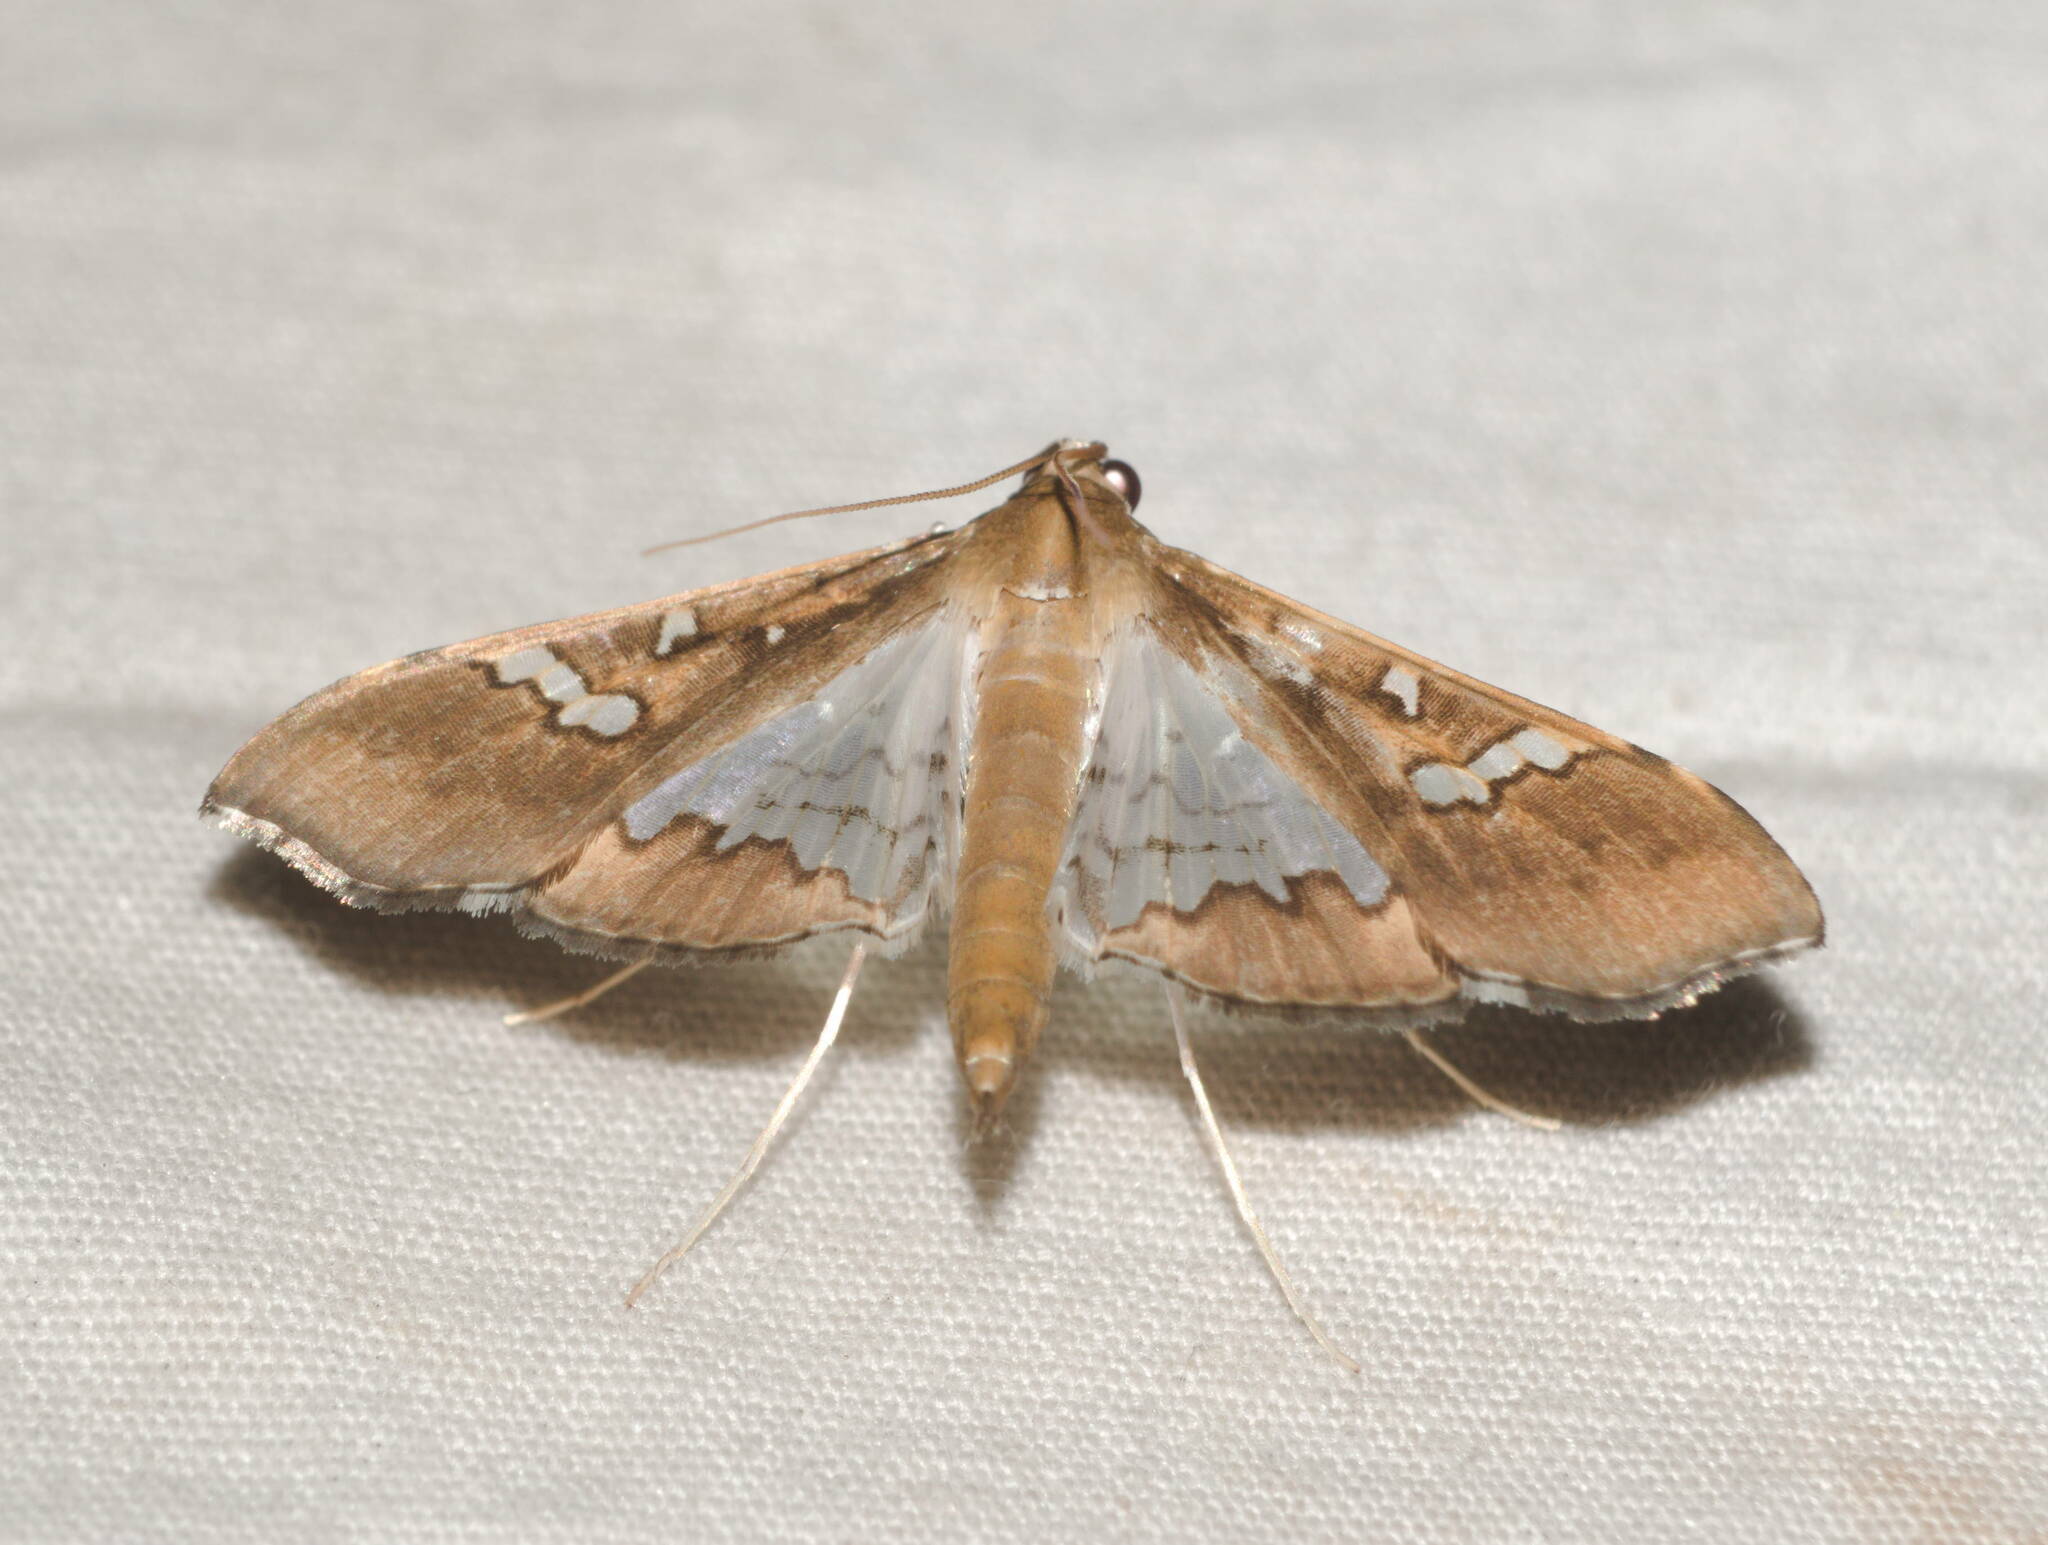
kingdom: Animalia
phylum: Arthropoda
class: Insecta
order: Lepidoptera
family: Crambidae
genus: Maruca
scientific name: Maruca vitrata
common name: Maruca pod borer
